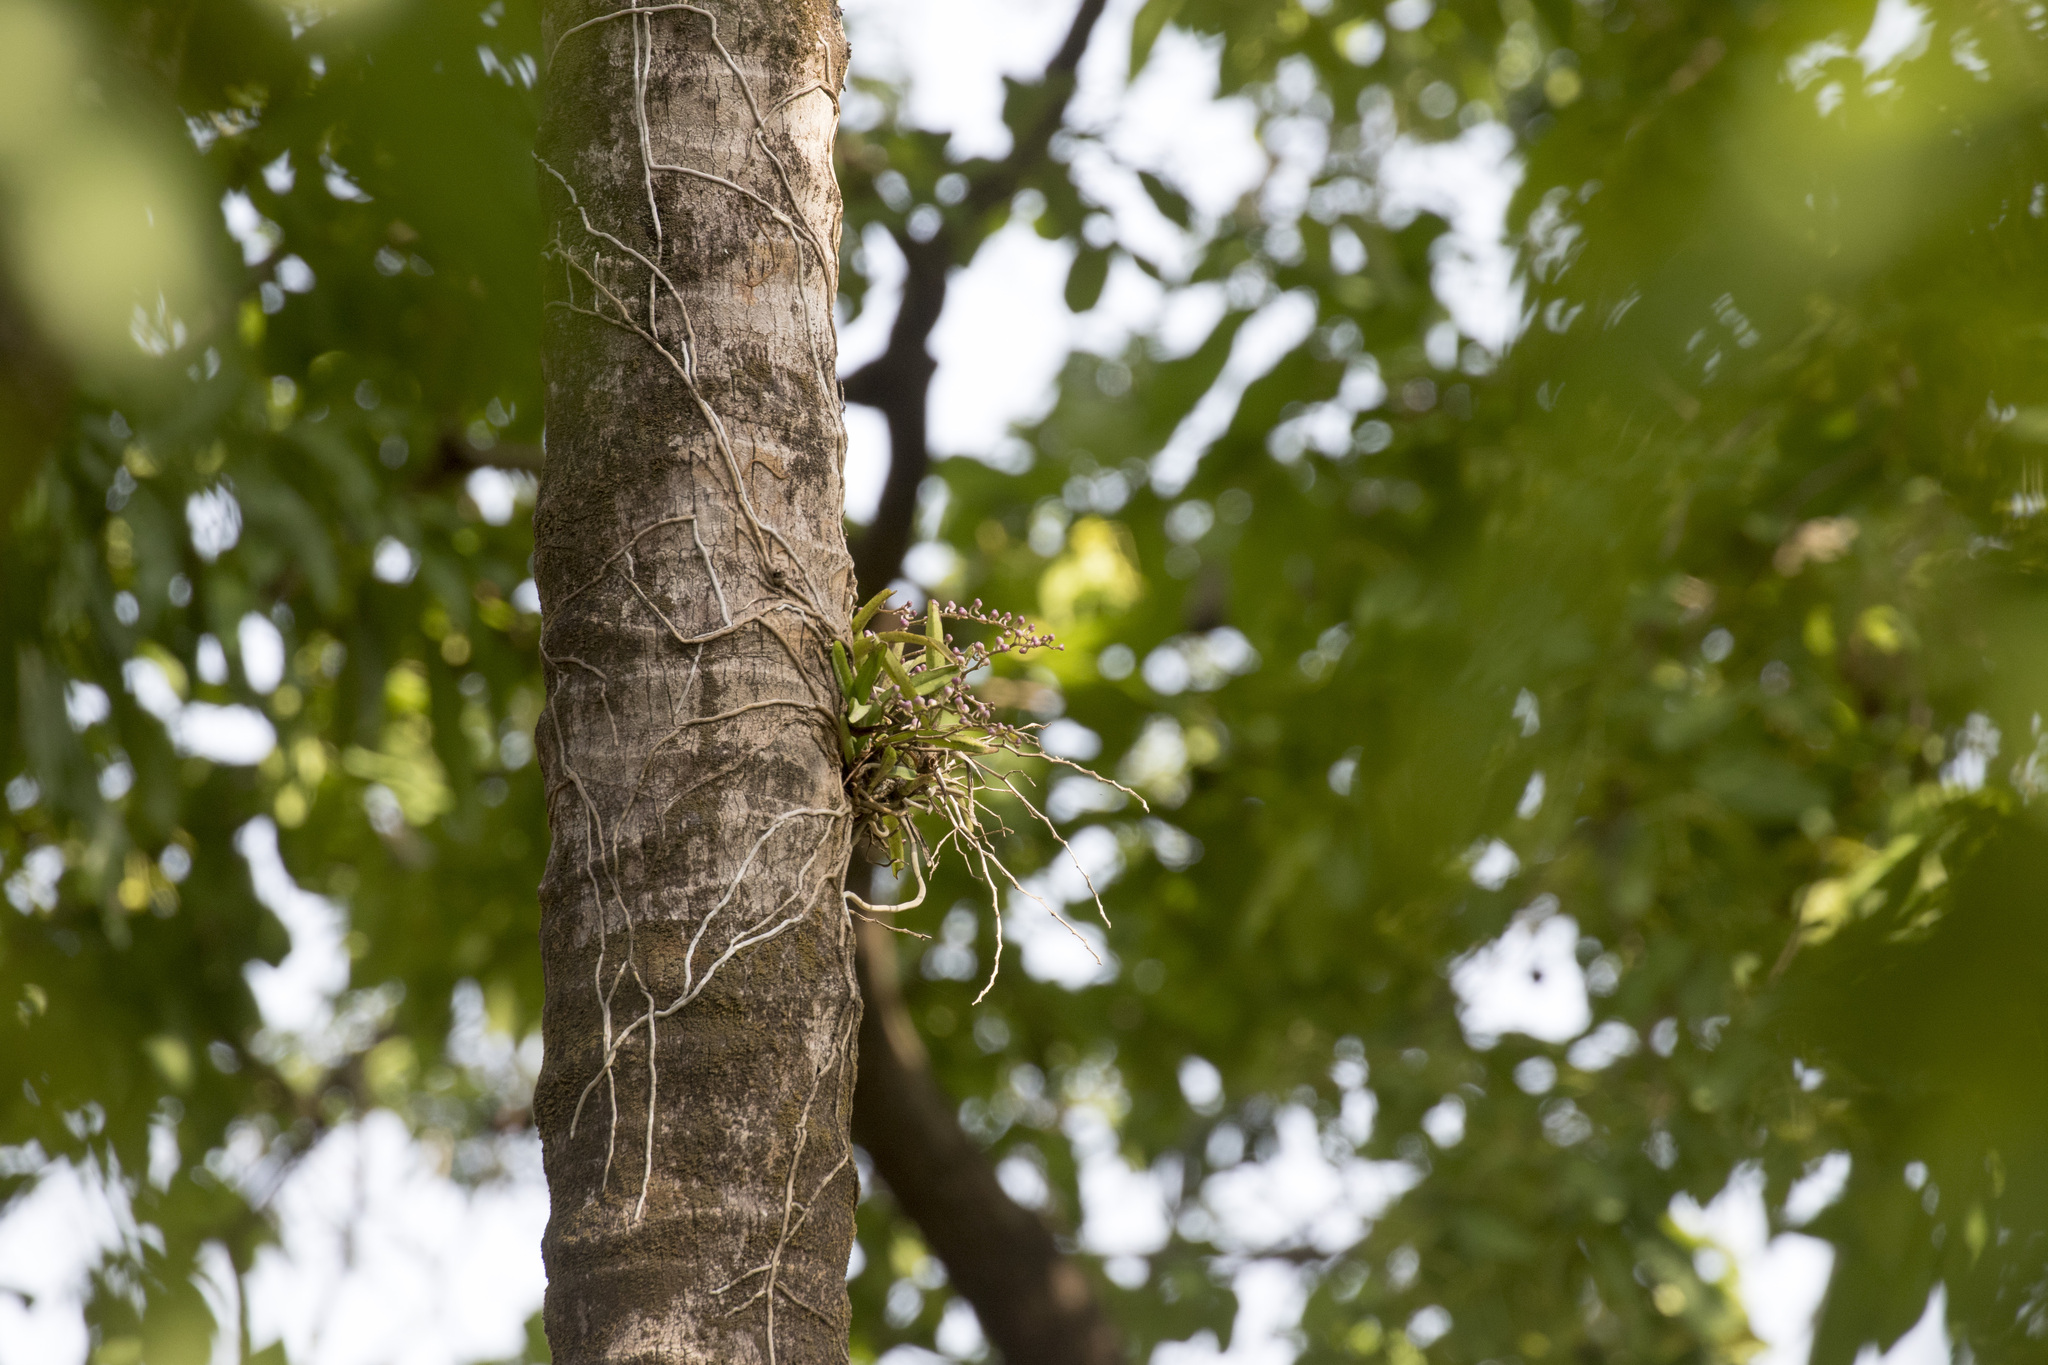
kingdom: Plantae
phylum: Tracheophyta
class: Liliopsida
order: Asparagales
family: Orchidaceae
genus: Rhynchostylis
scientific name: Rhynchostylis retusa
